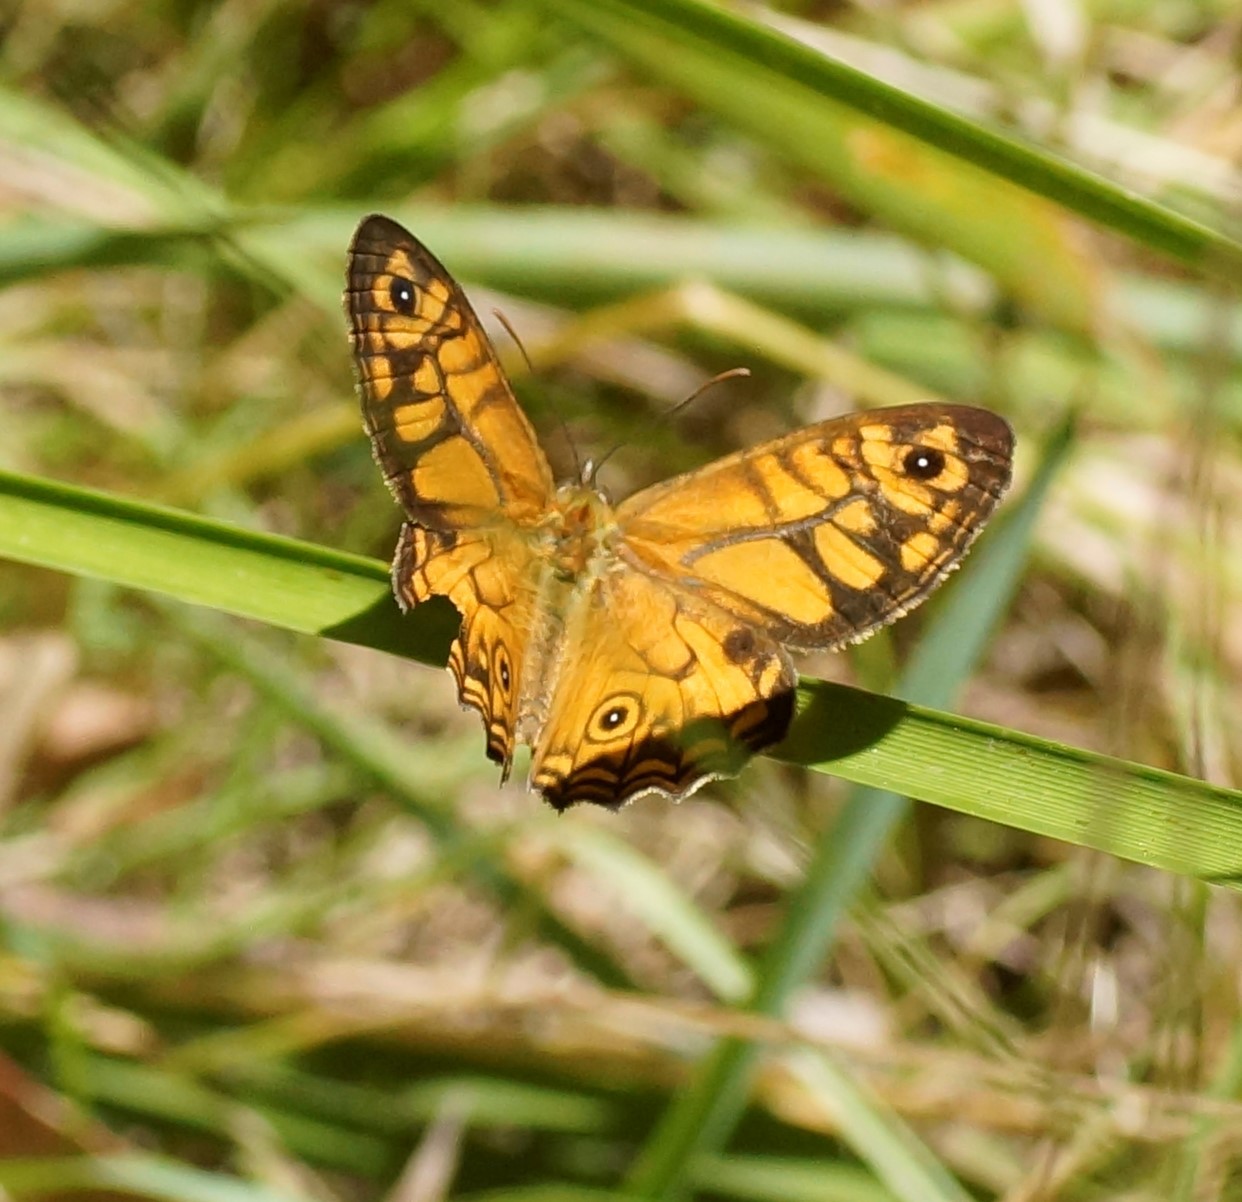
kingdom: Animalia
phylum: Arthropoda
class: Insecta
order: Lepidoptera
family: Nymphalidae
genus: Geitoneura
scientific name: Geitoneura acantha
